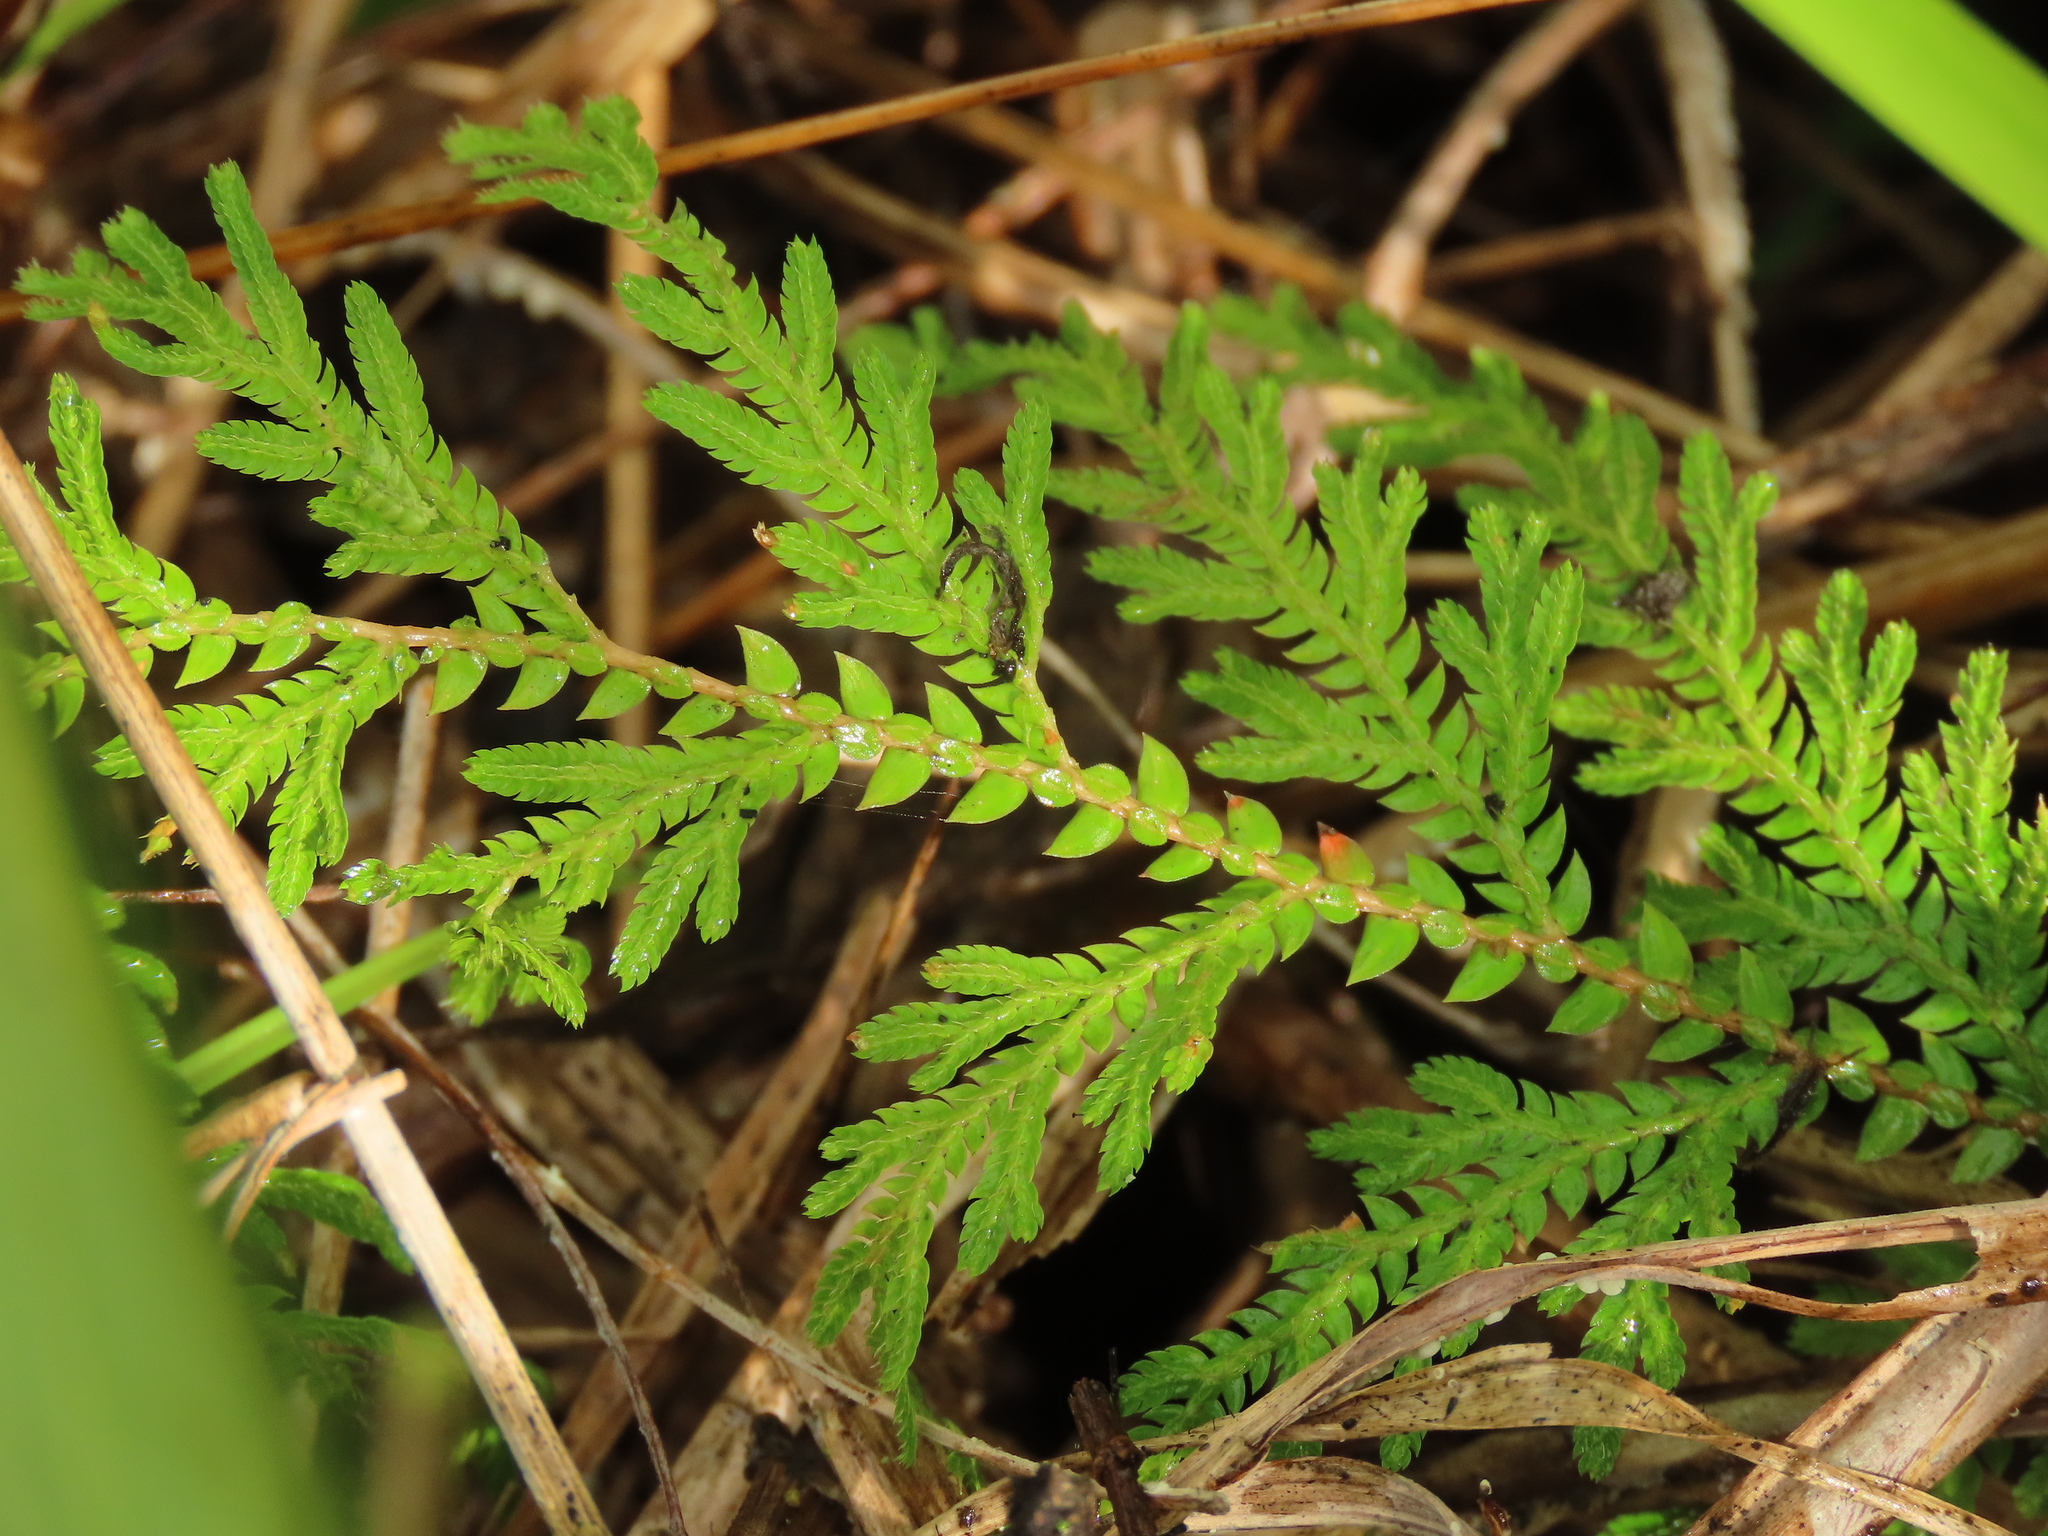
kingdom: Plantae
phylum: Tracheophyta
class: Lycopodiopsida
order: Selaginellales
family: Selaginellaceae
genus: Selaginella
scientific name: Selaginella delicatula
